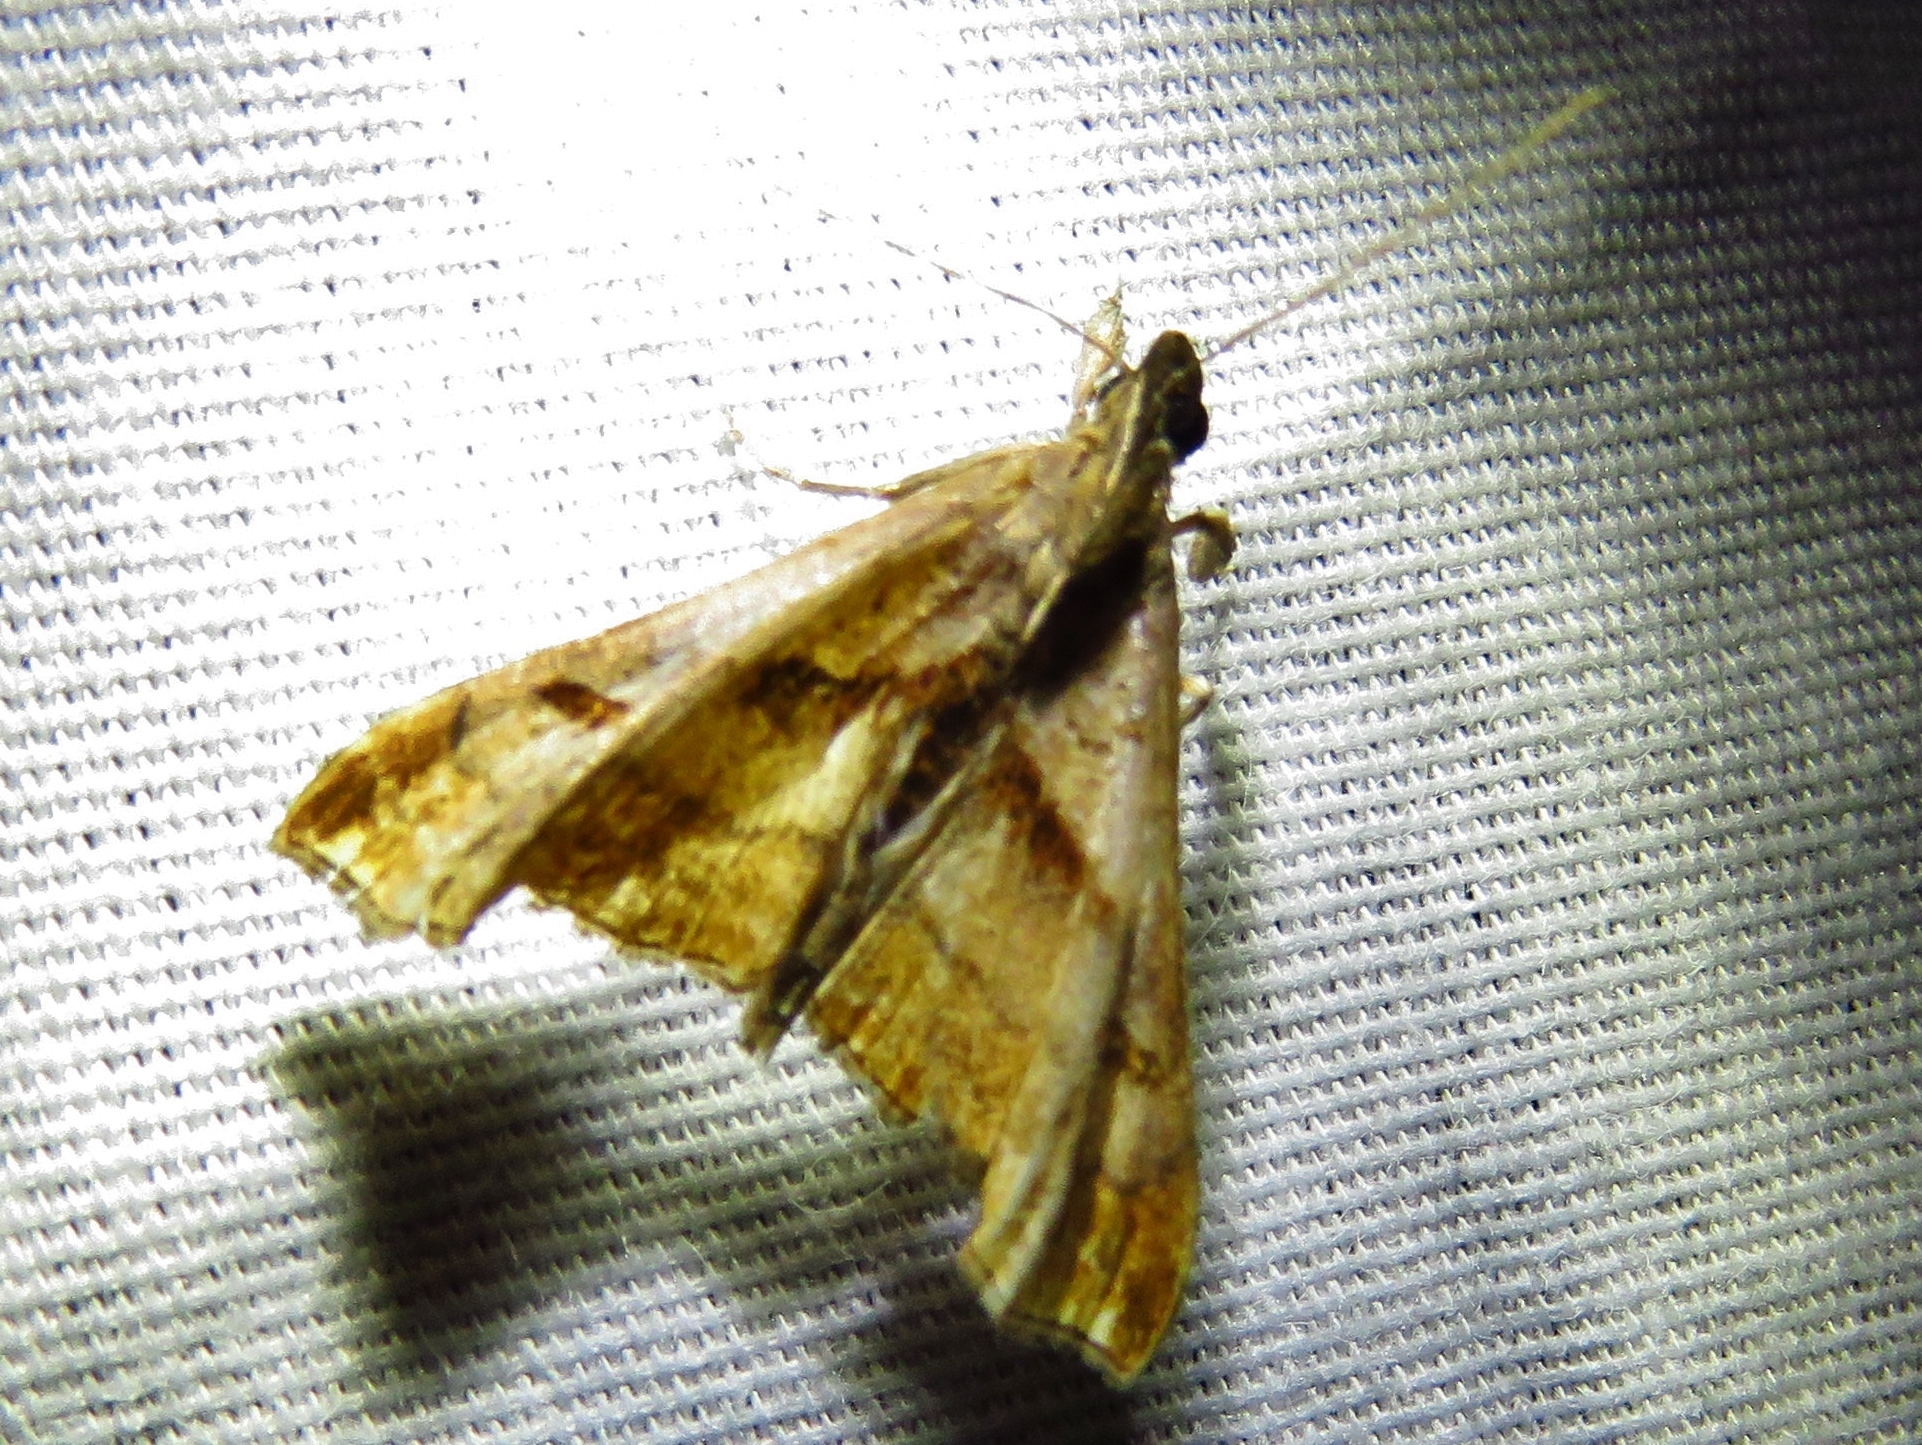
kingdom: Animalia
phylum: Arthropoda
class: Insecta
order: Lepidoptera
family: Erebidae
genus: Palthis
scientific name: Palthis angulalis
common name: Dark-spotted palthis moth
